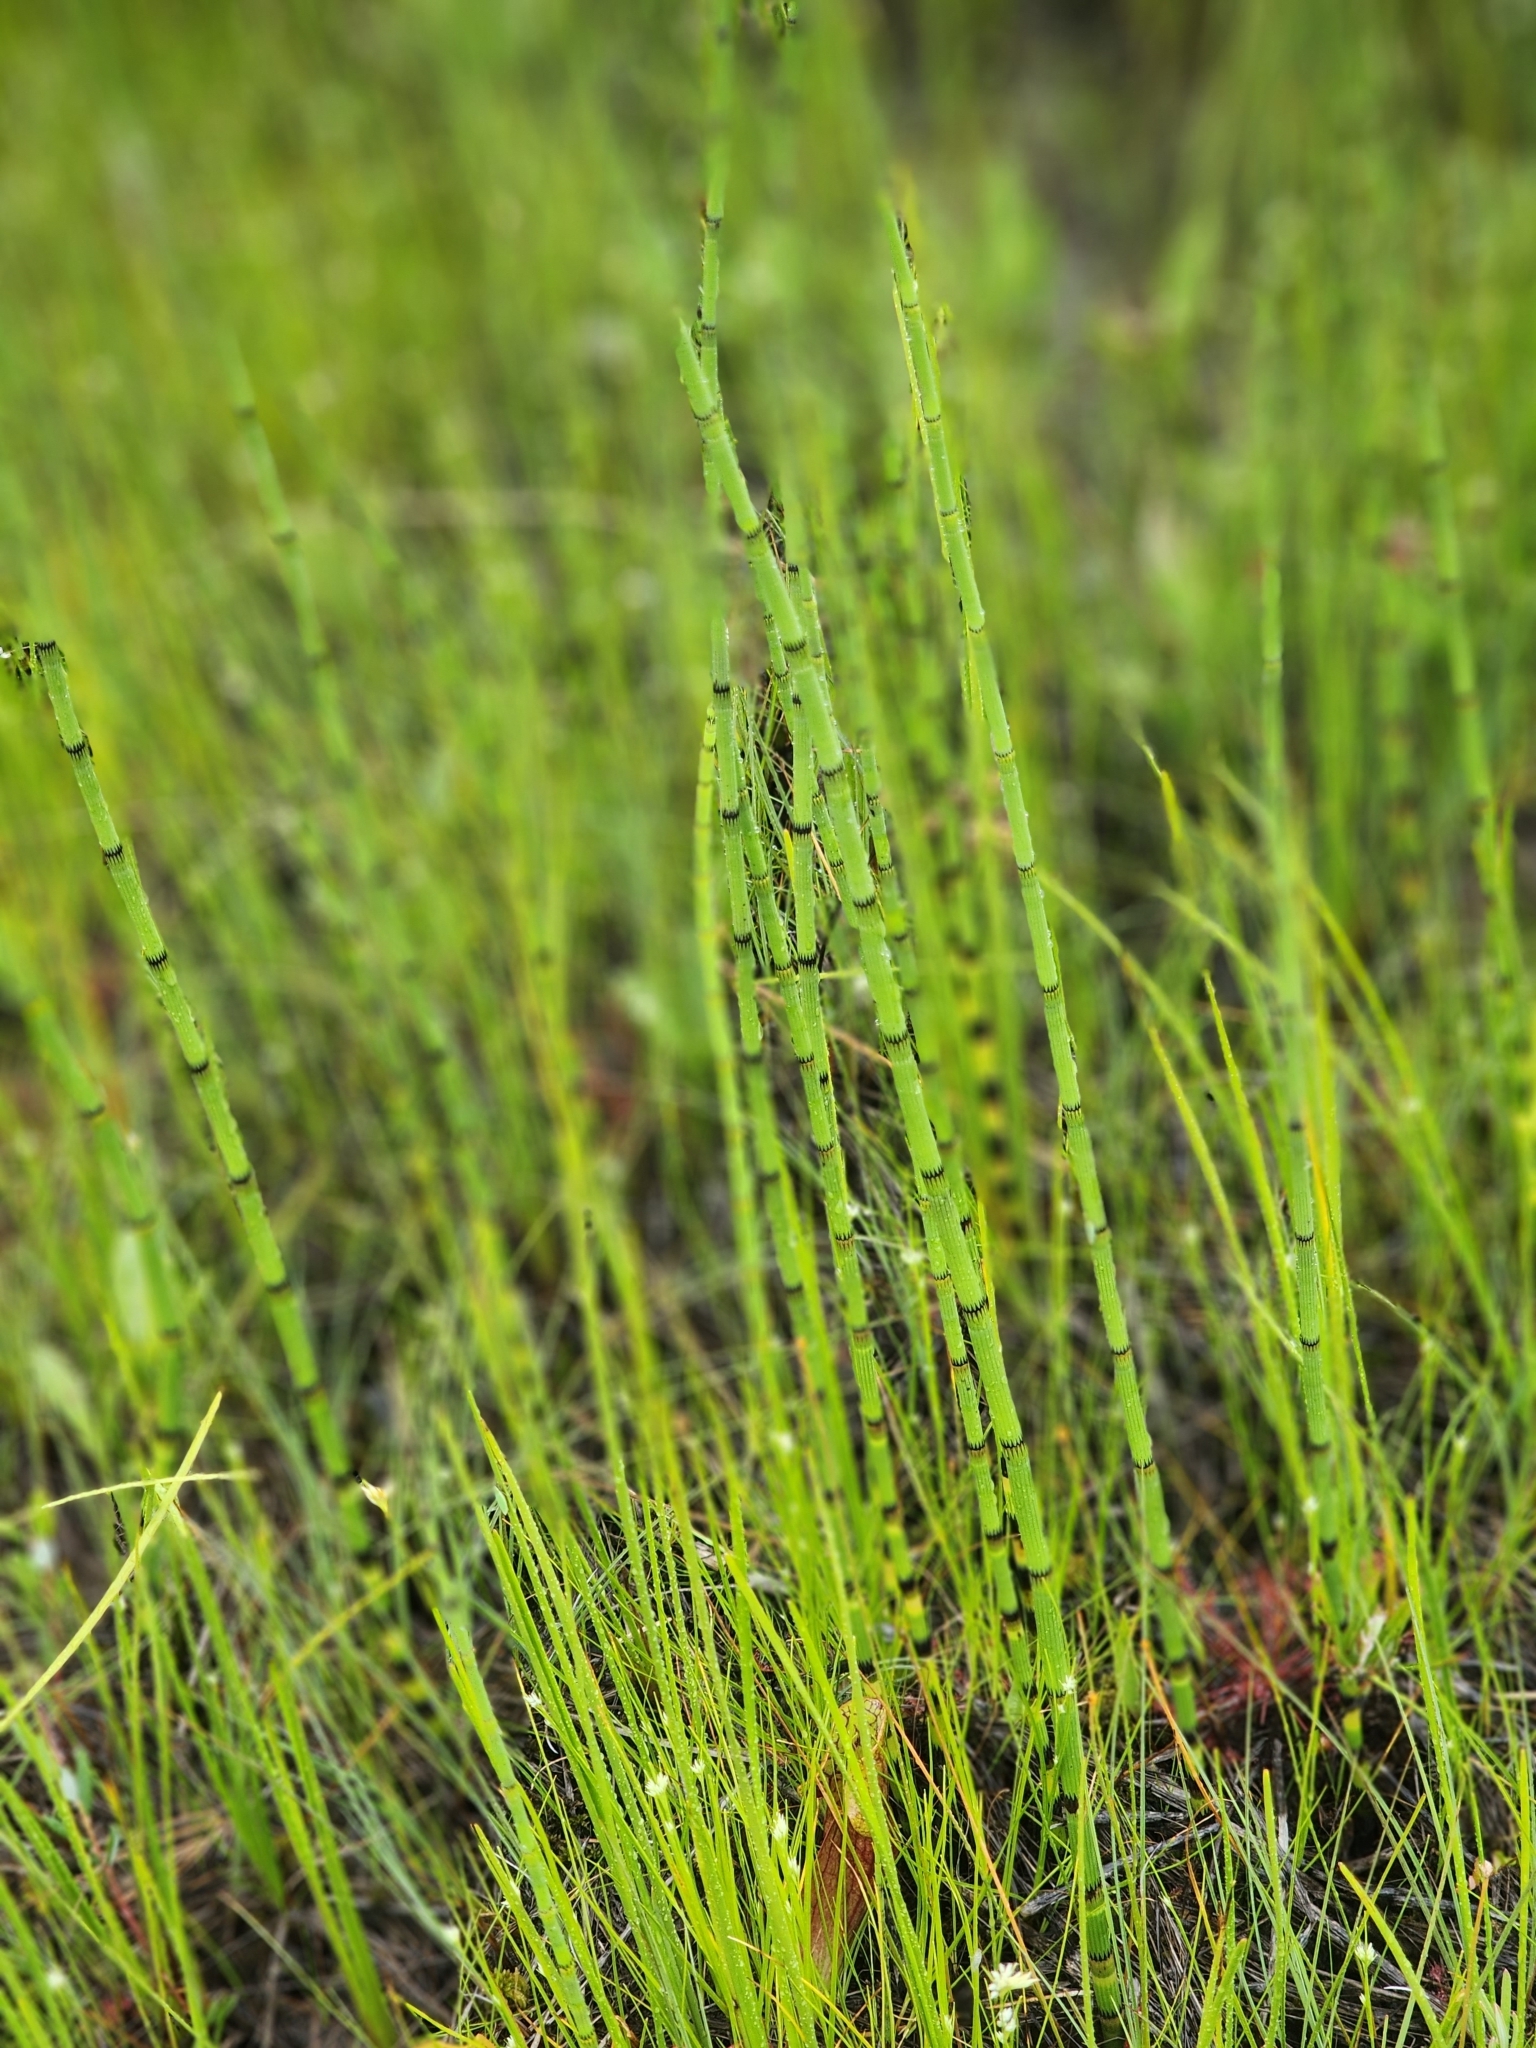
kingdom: Plantae
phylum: Tracheophyta
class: Polypodiopsida
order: Equisetales
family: Equisetaceae
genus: Equisetum
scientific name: Equisetum fluviatile
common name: Water horsetail
